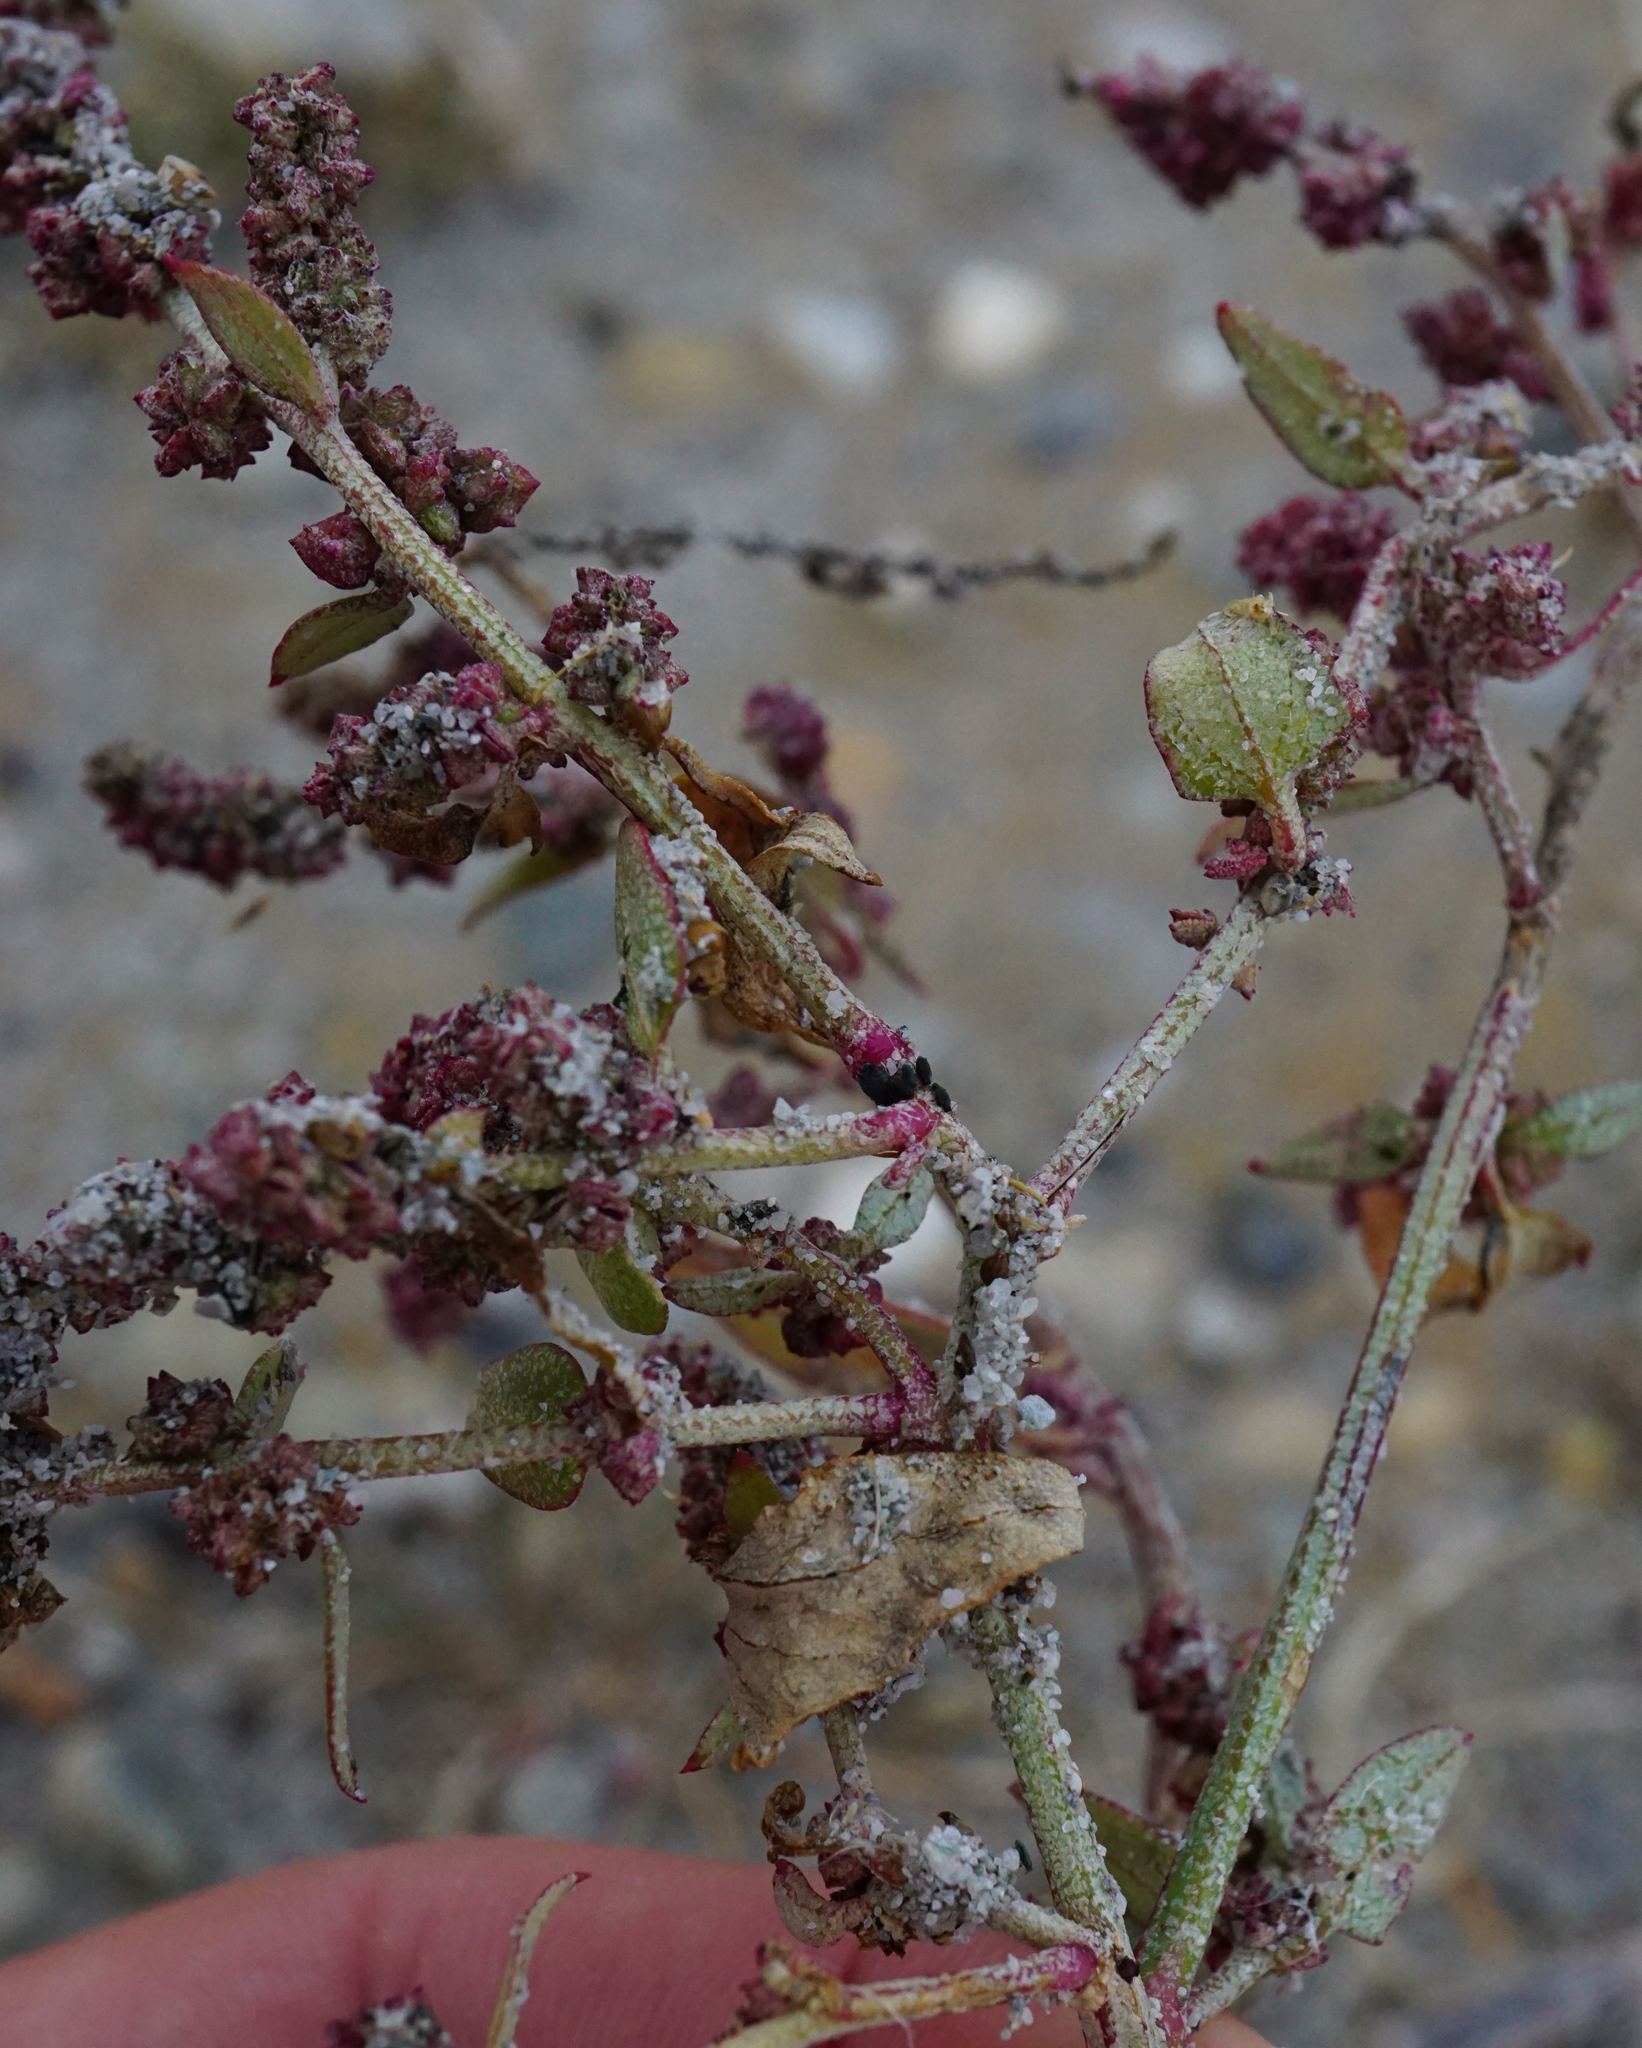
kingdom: Plantae
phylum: Tracheophyta
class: Magnoliopsida
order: Caryophyllales
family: Amaranthaceae
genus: Atriplex
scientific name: Atriplex prostrata
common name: Spear-leaved orache
